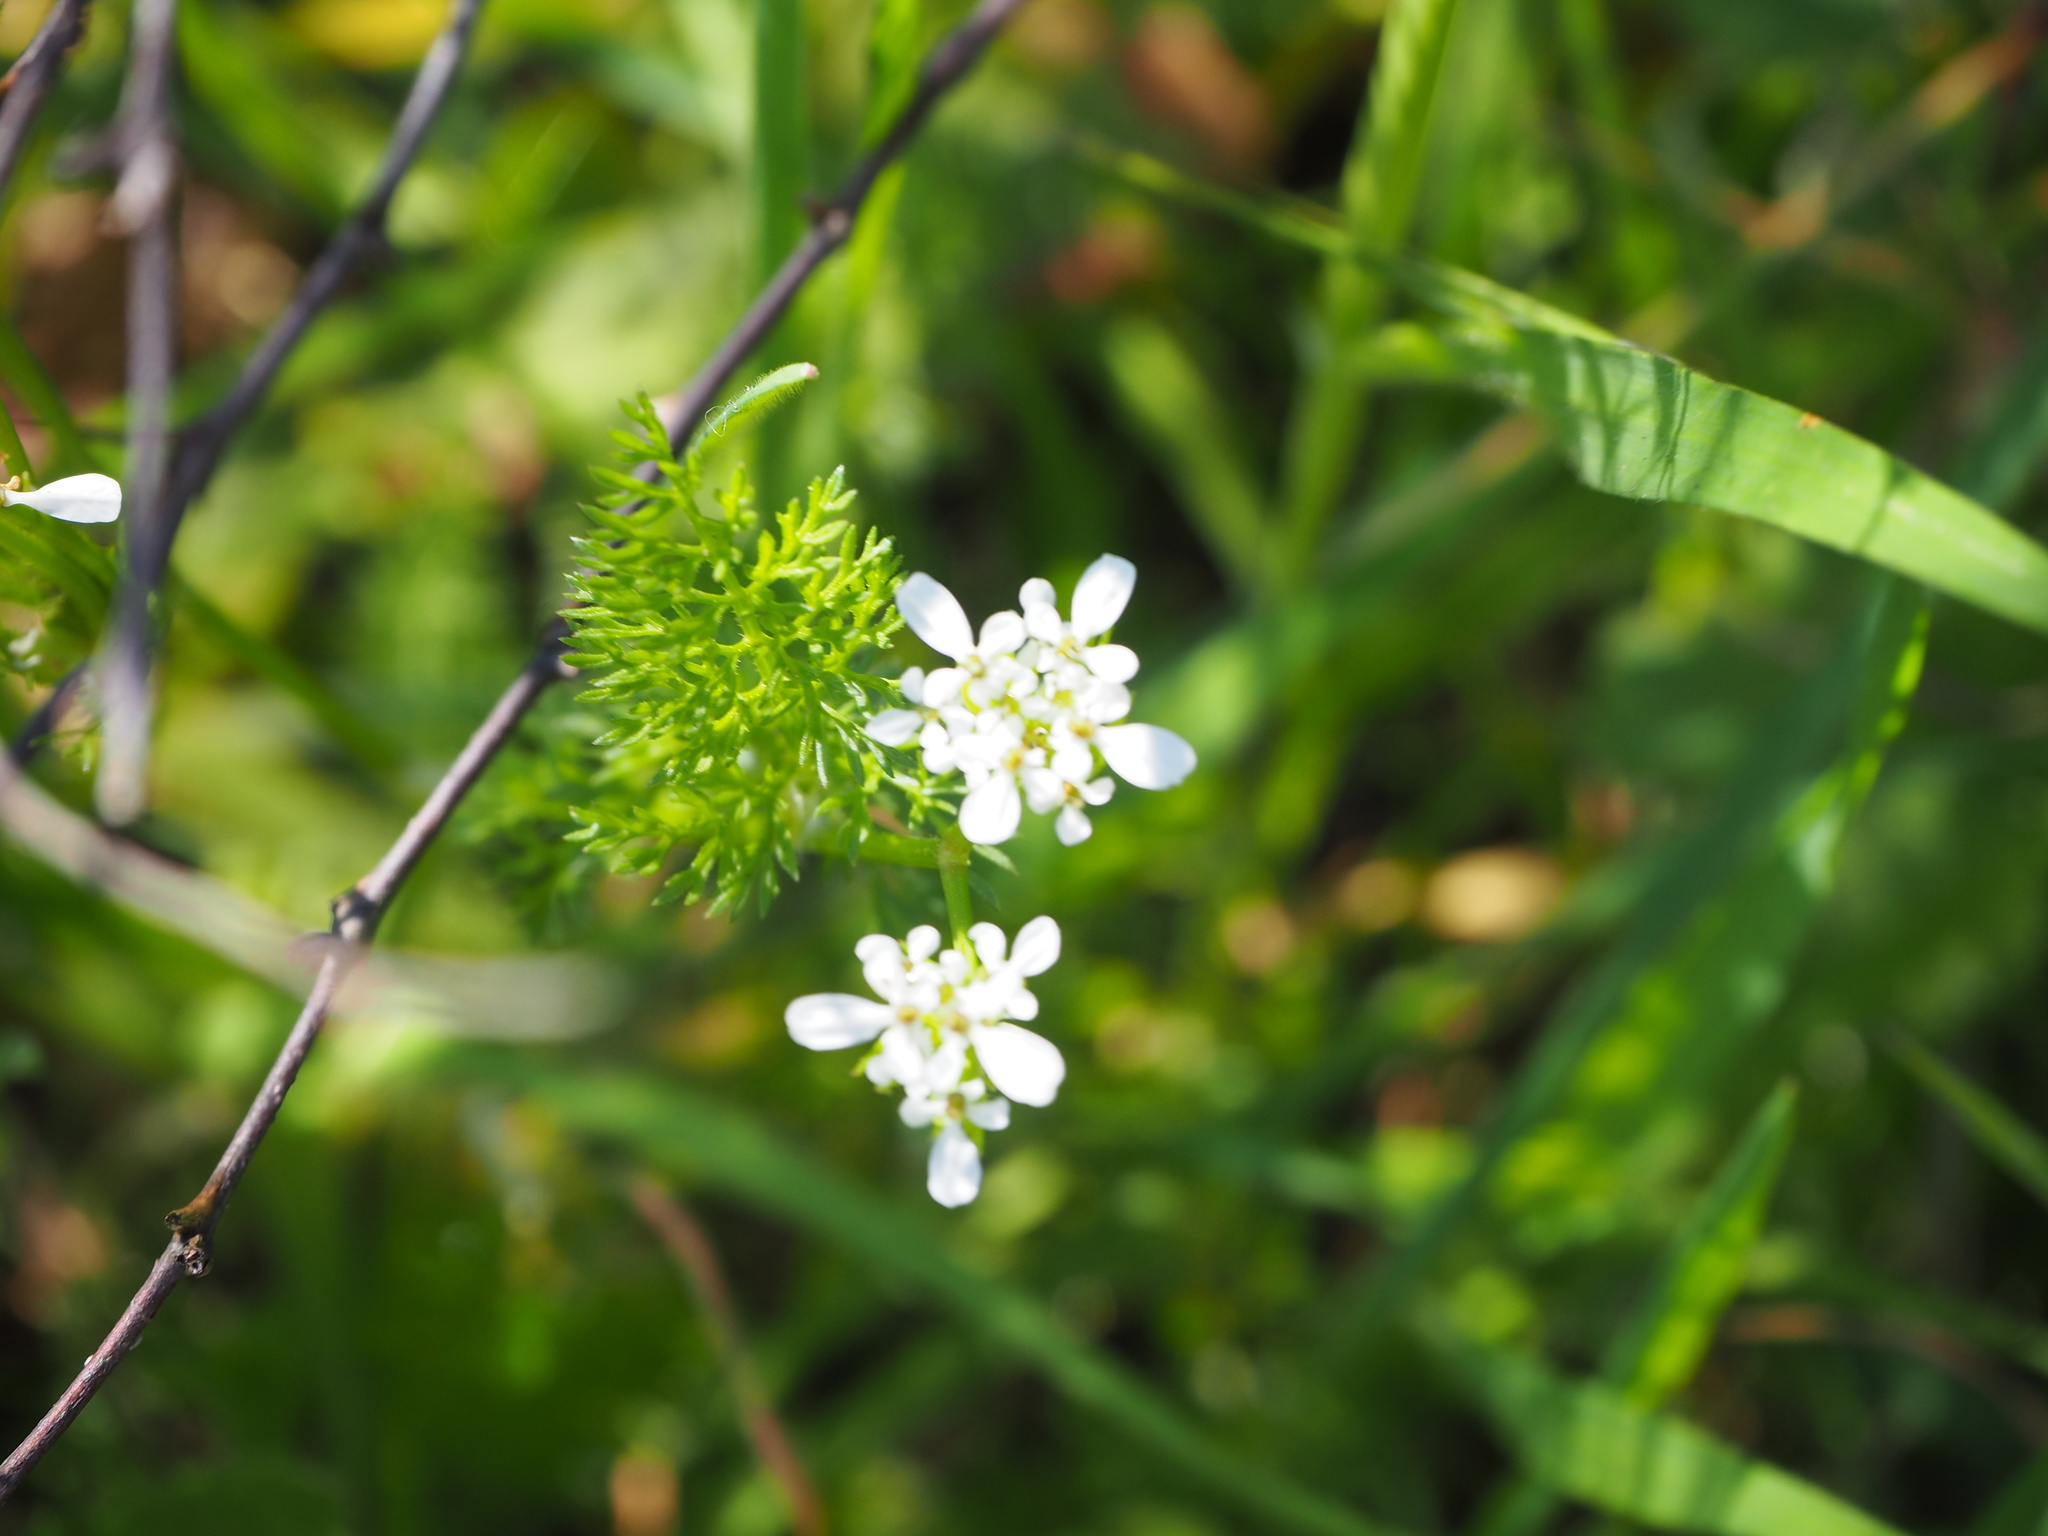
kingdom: Plantae
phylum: Tracheophyta
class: Magnoliopsida
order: Apiales
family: Apiaceae
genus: Scandix
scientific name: Scandix pecten-veneris
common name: Shepherd's-needle
